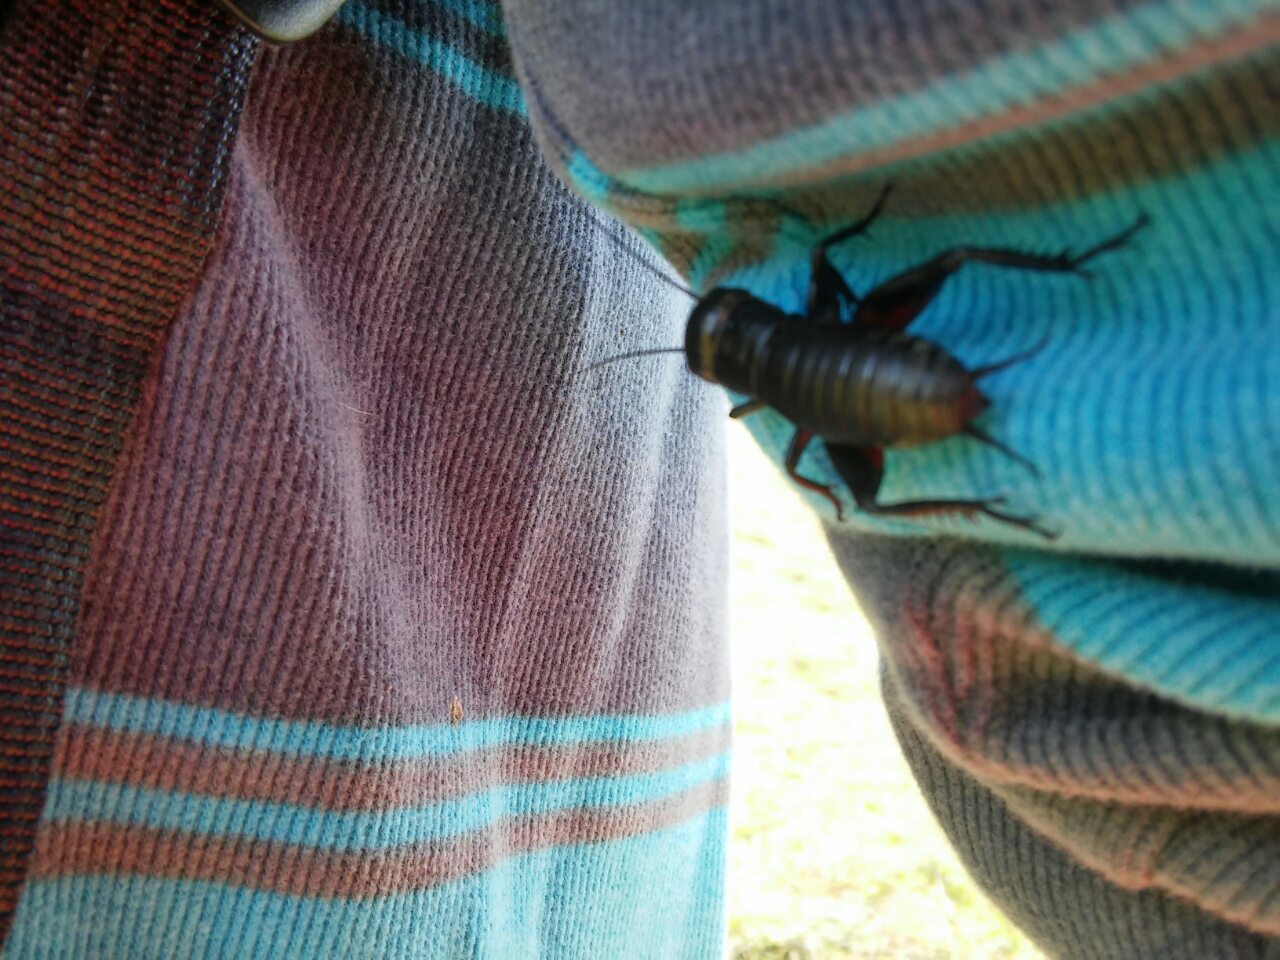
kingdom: Animalia
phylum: Arthropoda
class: Insecta
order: Orthoptera
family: Gryllidae
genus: Gryllus
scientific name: Gryllus campestris
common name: Field cricket
